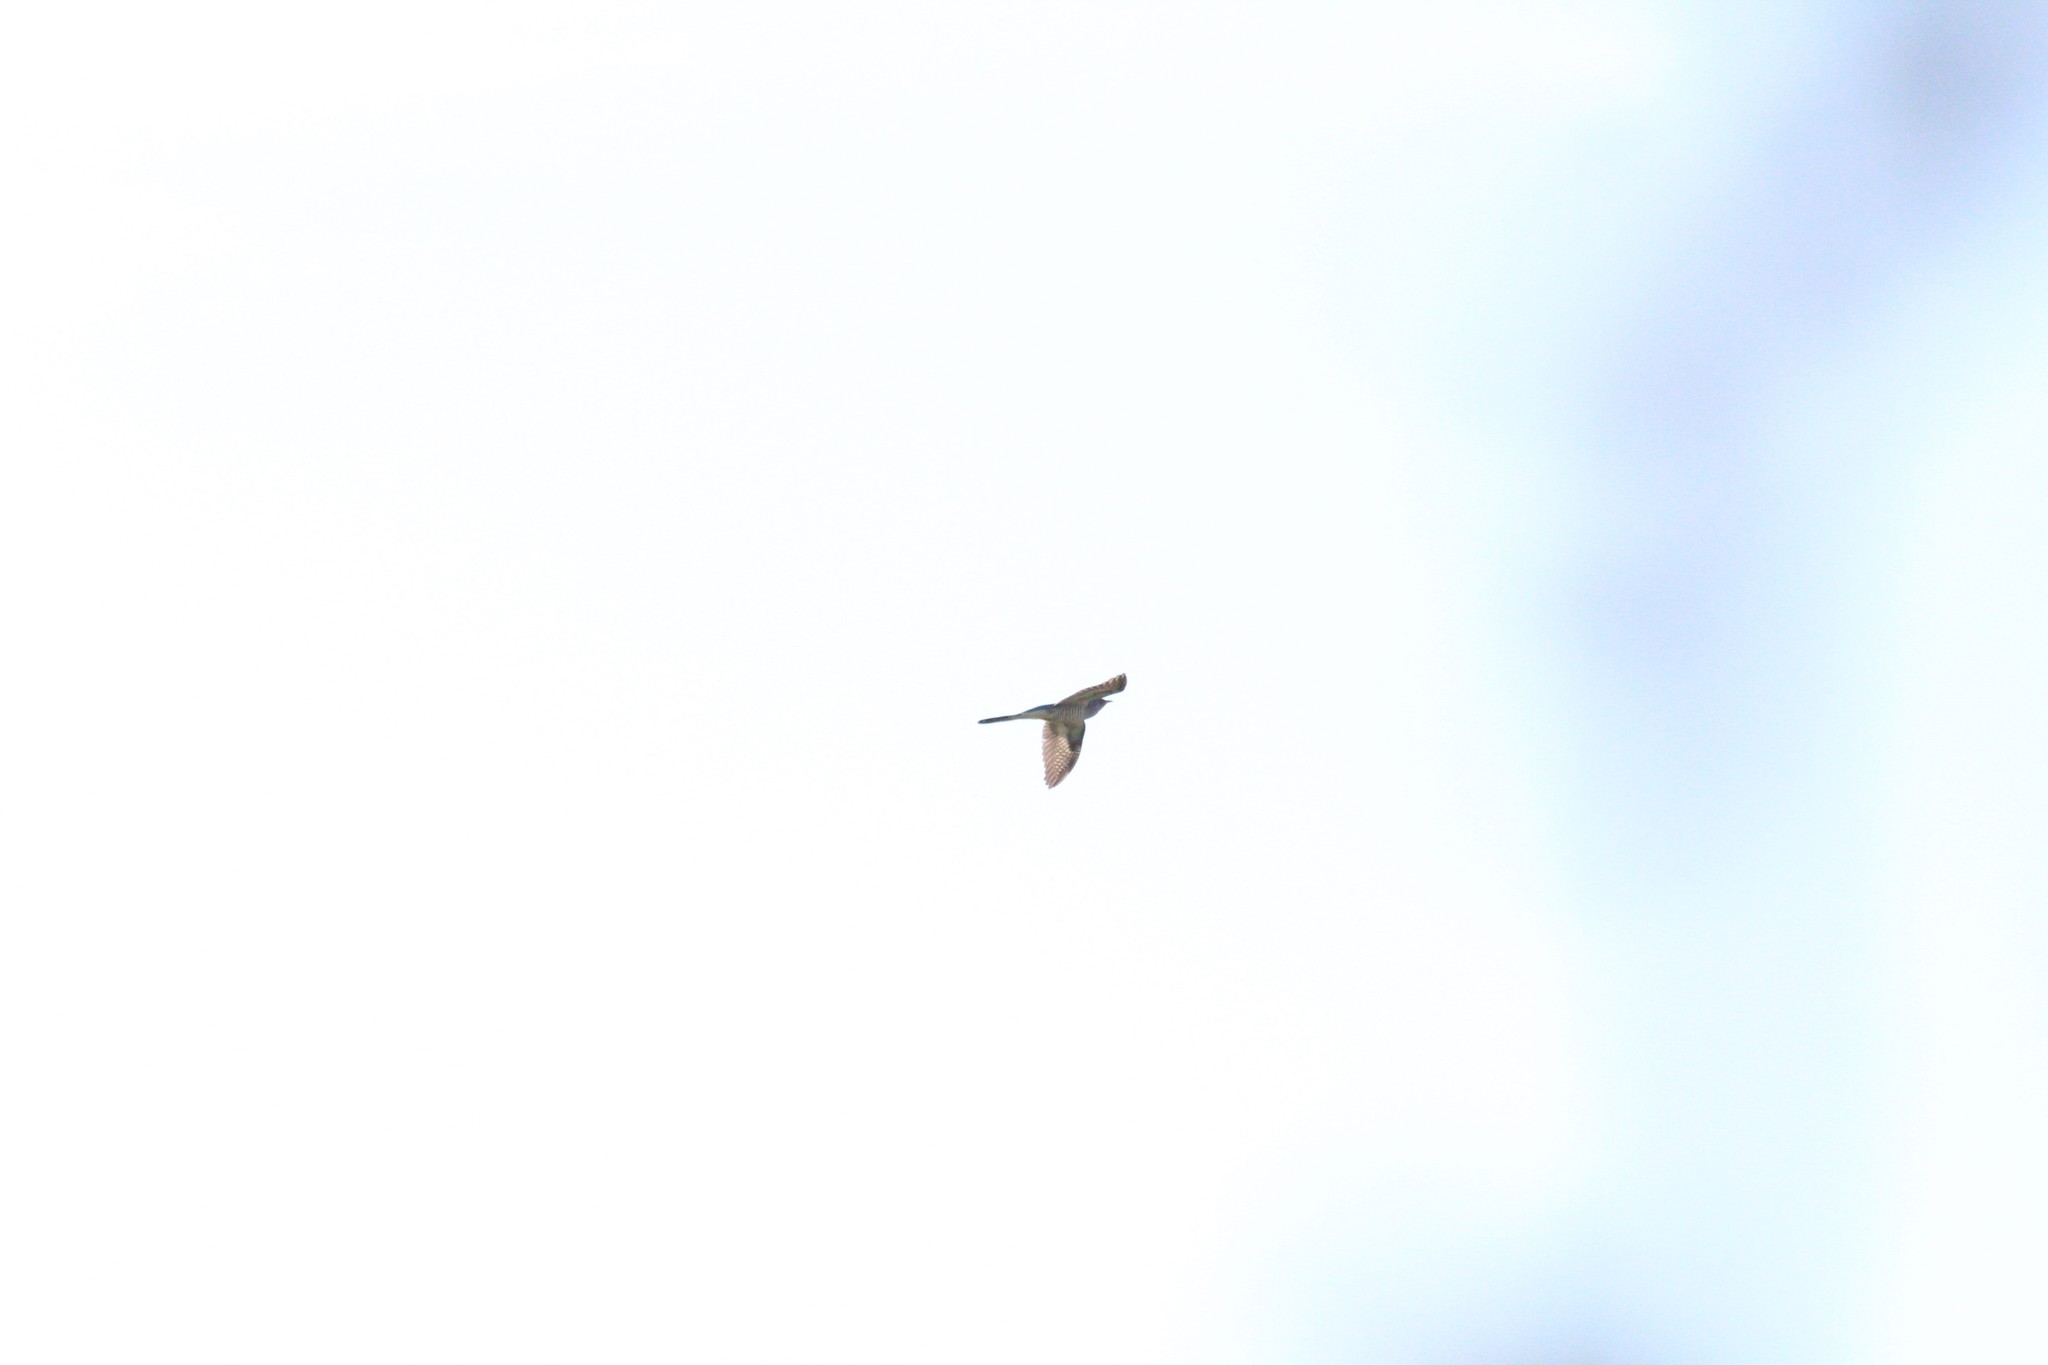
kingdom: Animalia
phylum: Chordata
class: Aves
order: Cuculiformes
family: Cuculidae
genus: Cuculus
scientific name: Cuculus canorus
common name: Common cuckoo
